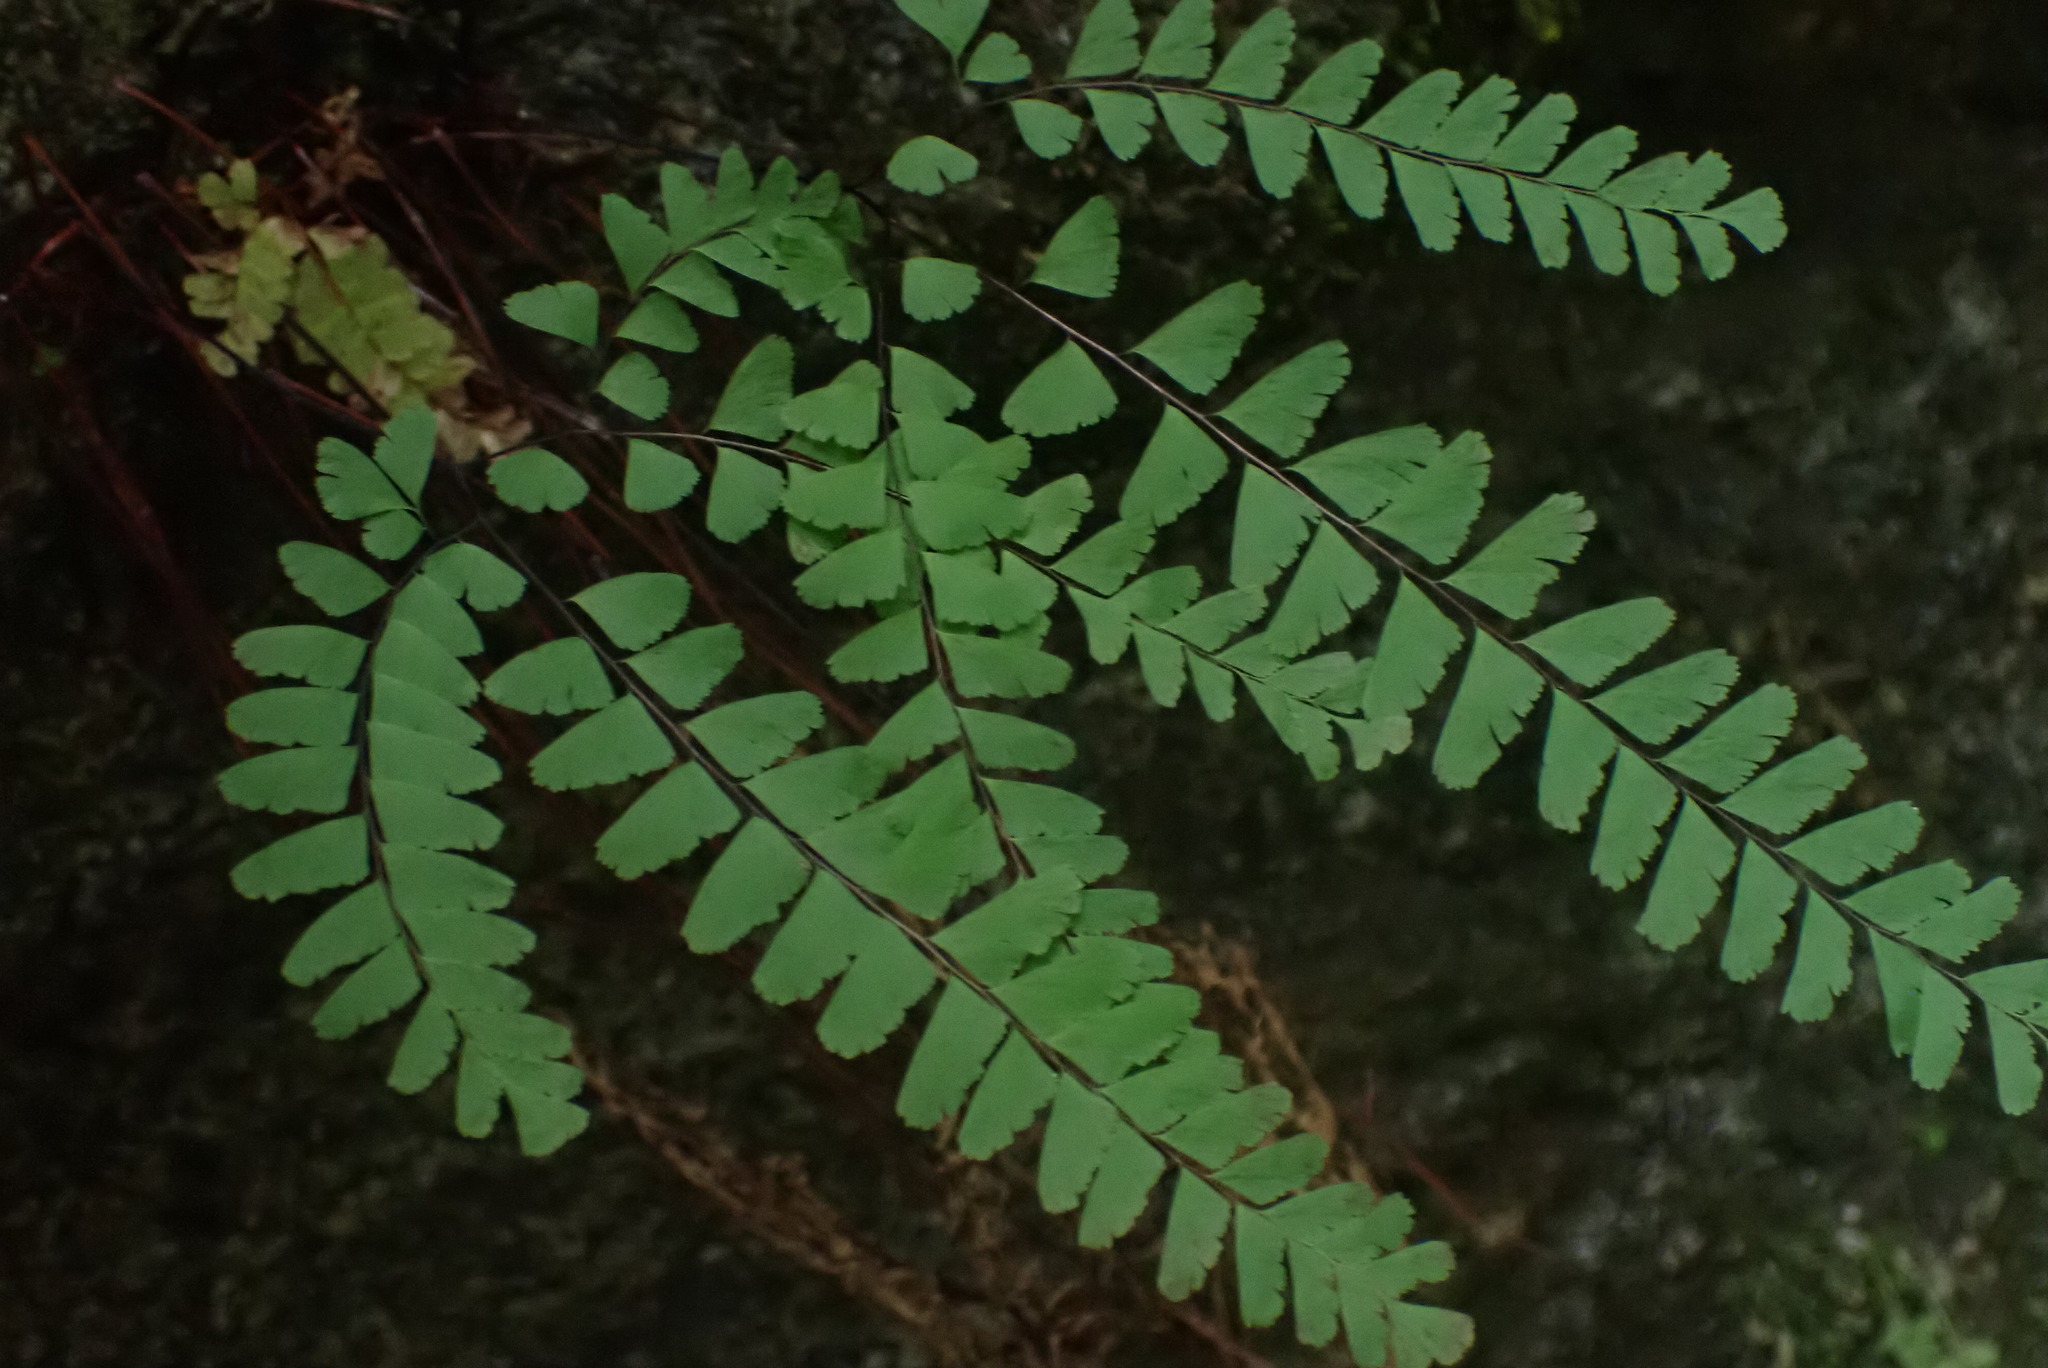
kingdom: Plantae
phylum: Tracheophyta
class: Polypodiopsida
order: Polypodiales
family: Pteridaceae
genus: Adiantum
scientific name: Adiantum aleuticum
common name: Aleutian maidenhair fern
